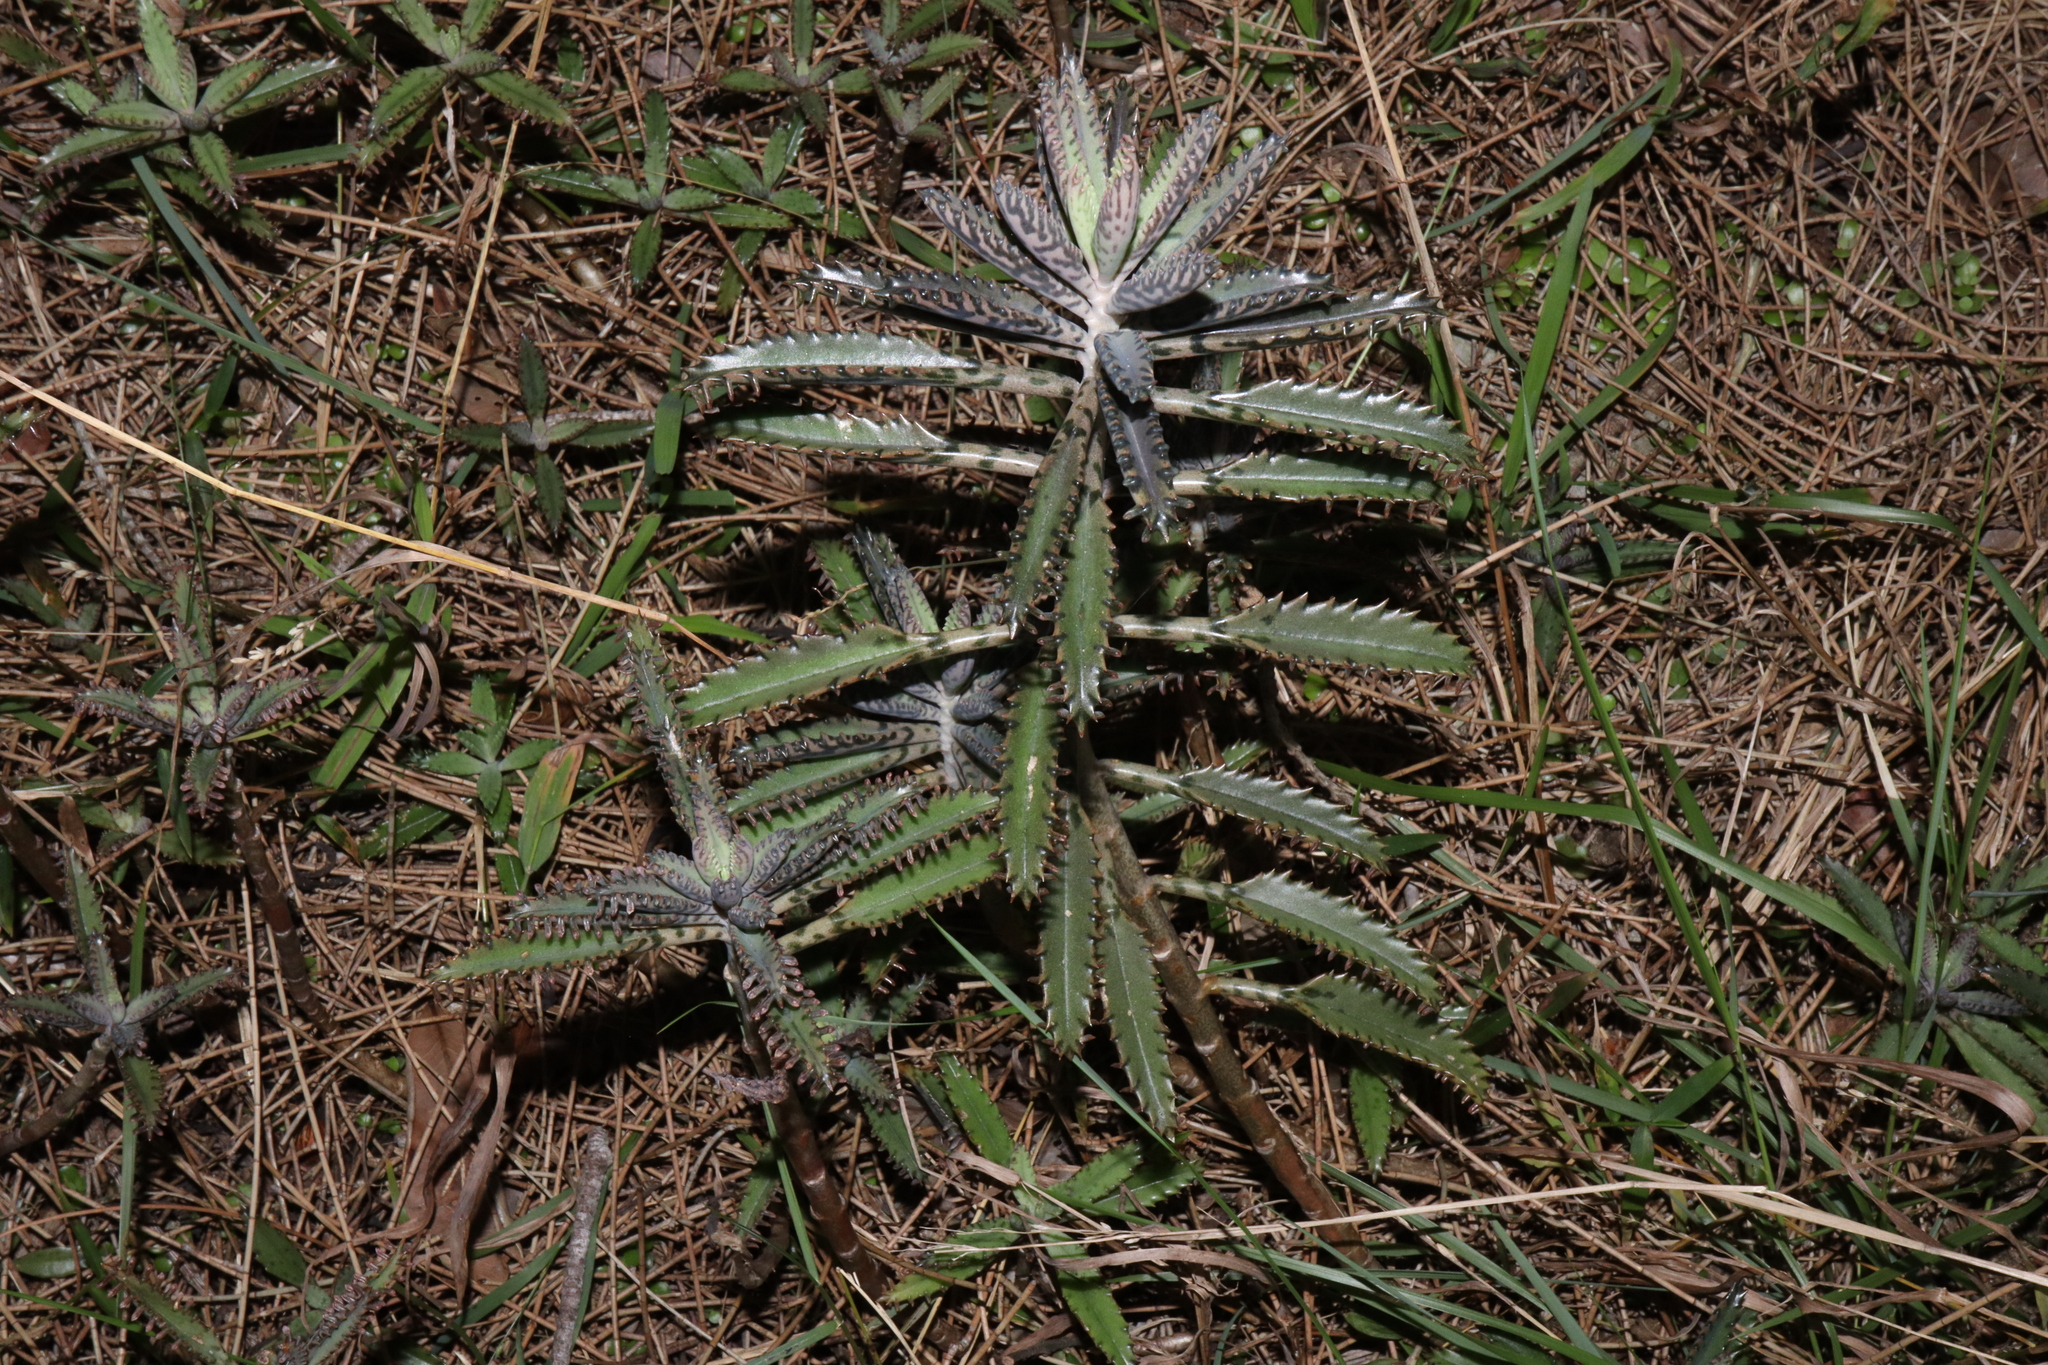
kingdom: Plantae
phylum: Tracheophyta
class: Magnoliopsida
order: Saxifragales
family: Crassulaceae
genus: Kalanchoe
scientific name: Kalanchoe houghtonii
